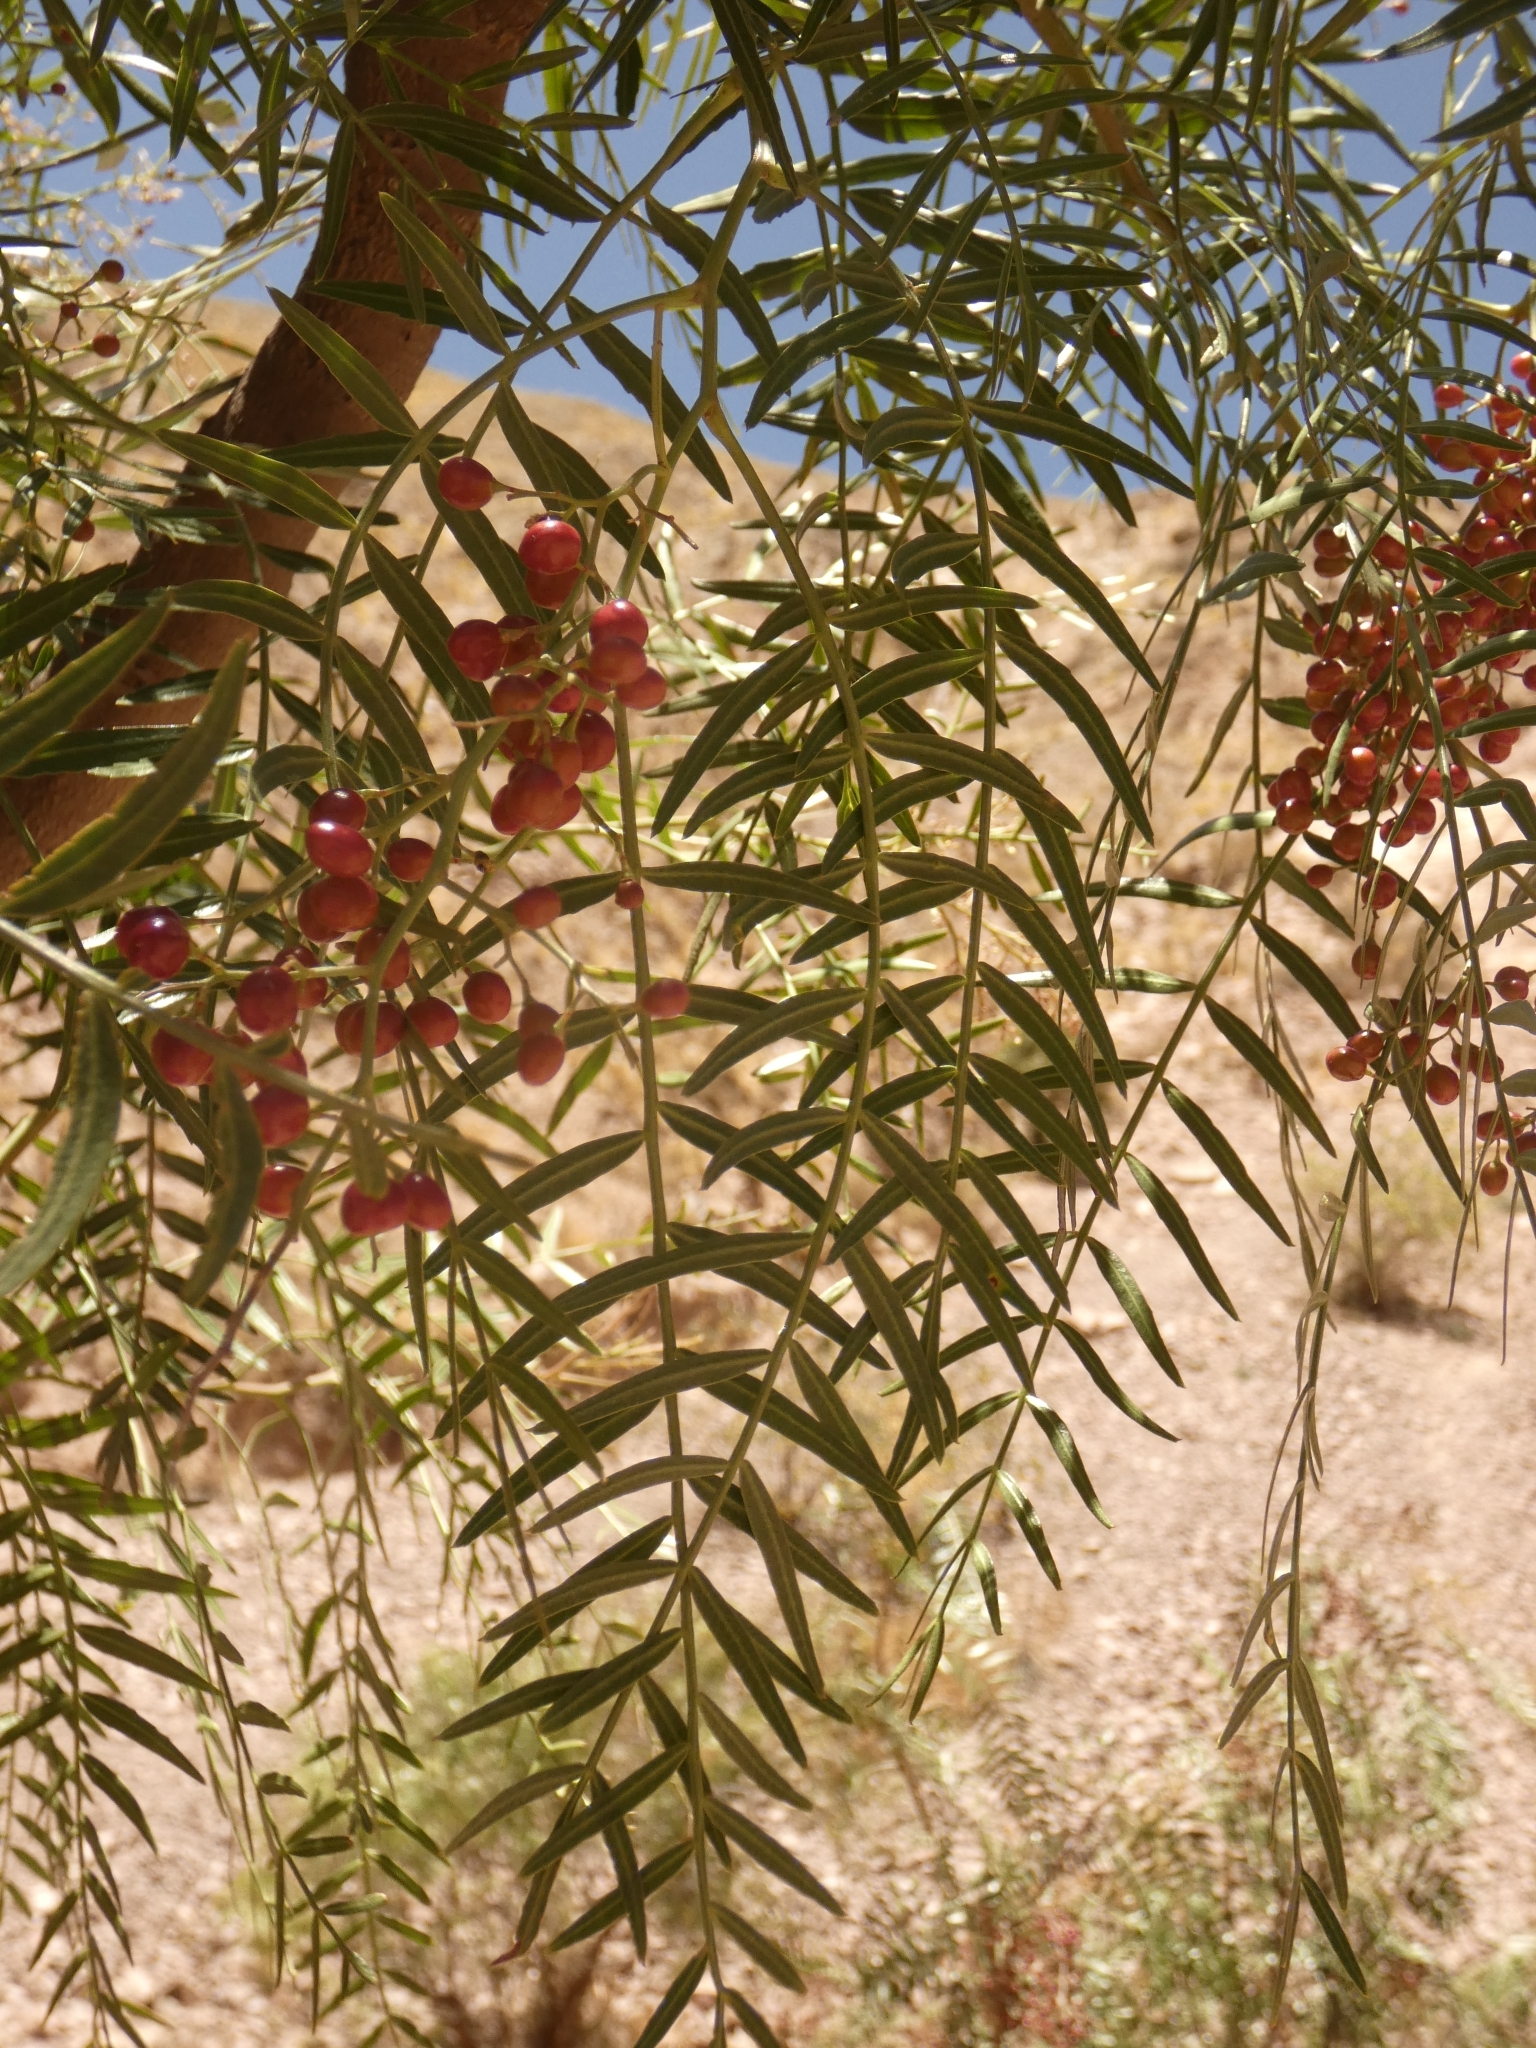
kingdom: Plantae
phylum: Tracheophyta
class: Magnoliopsida
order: Sapindales
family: Anacardiaceae
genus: Schinus
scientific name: Schinus areira
